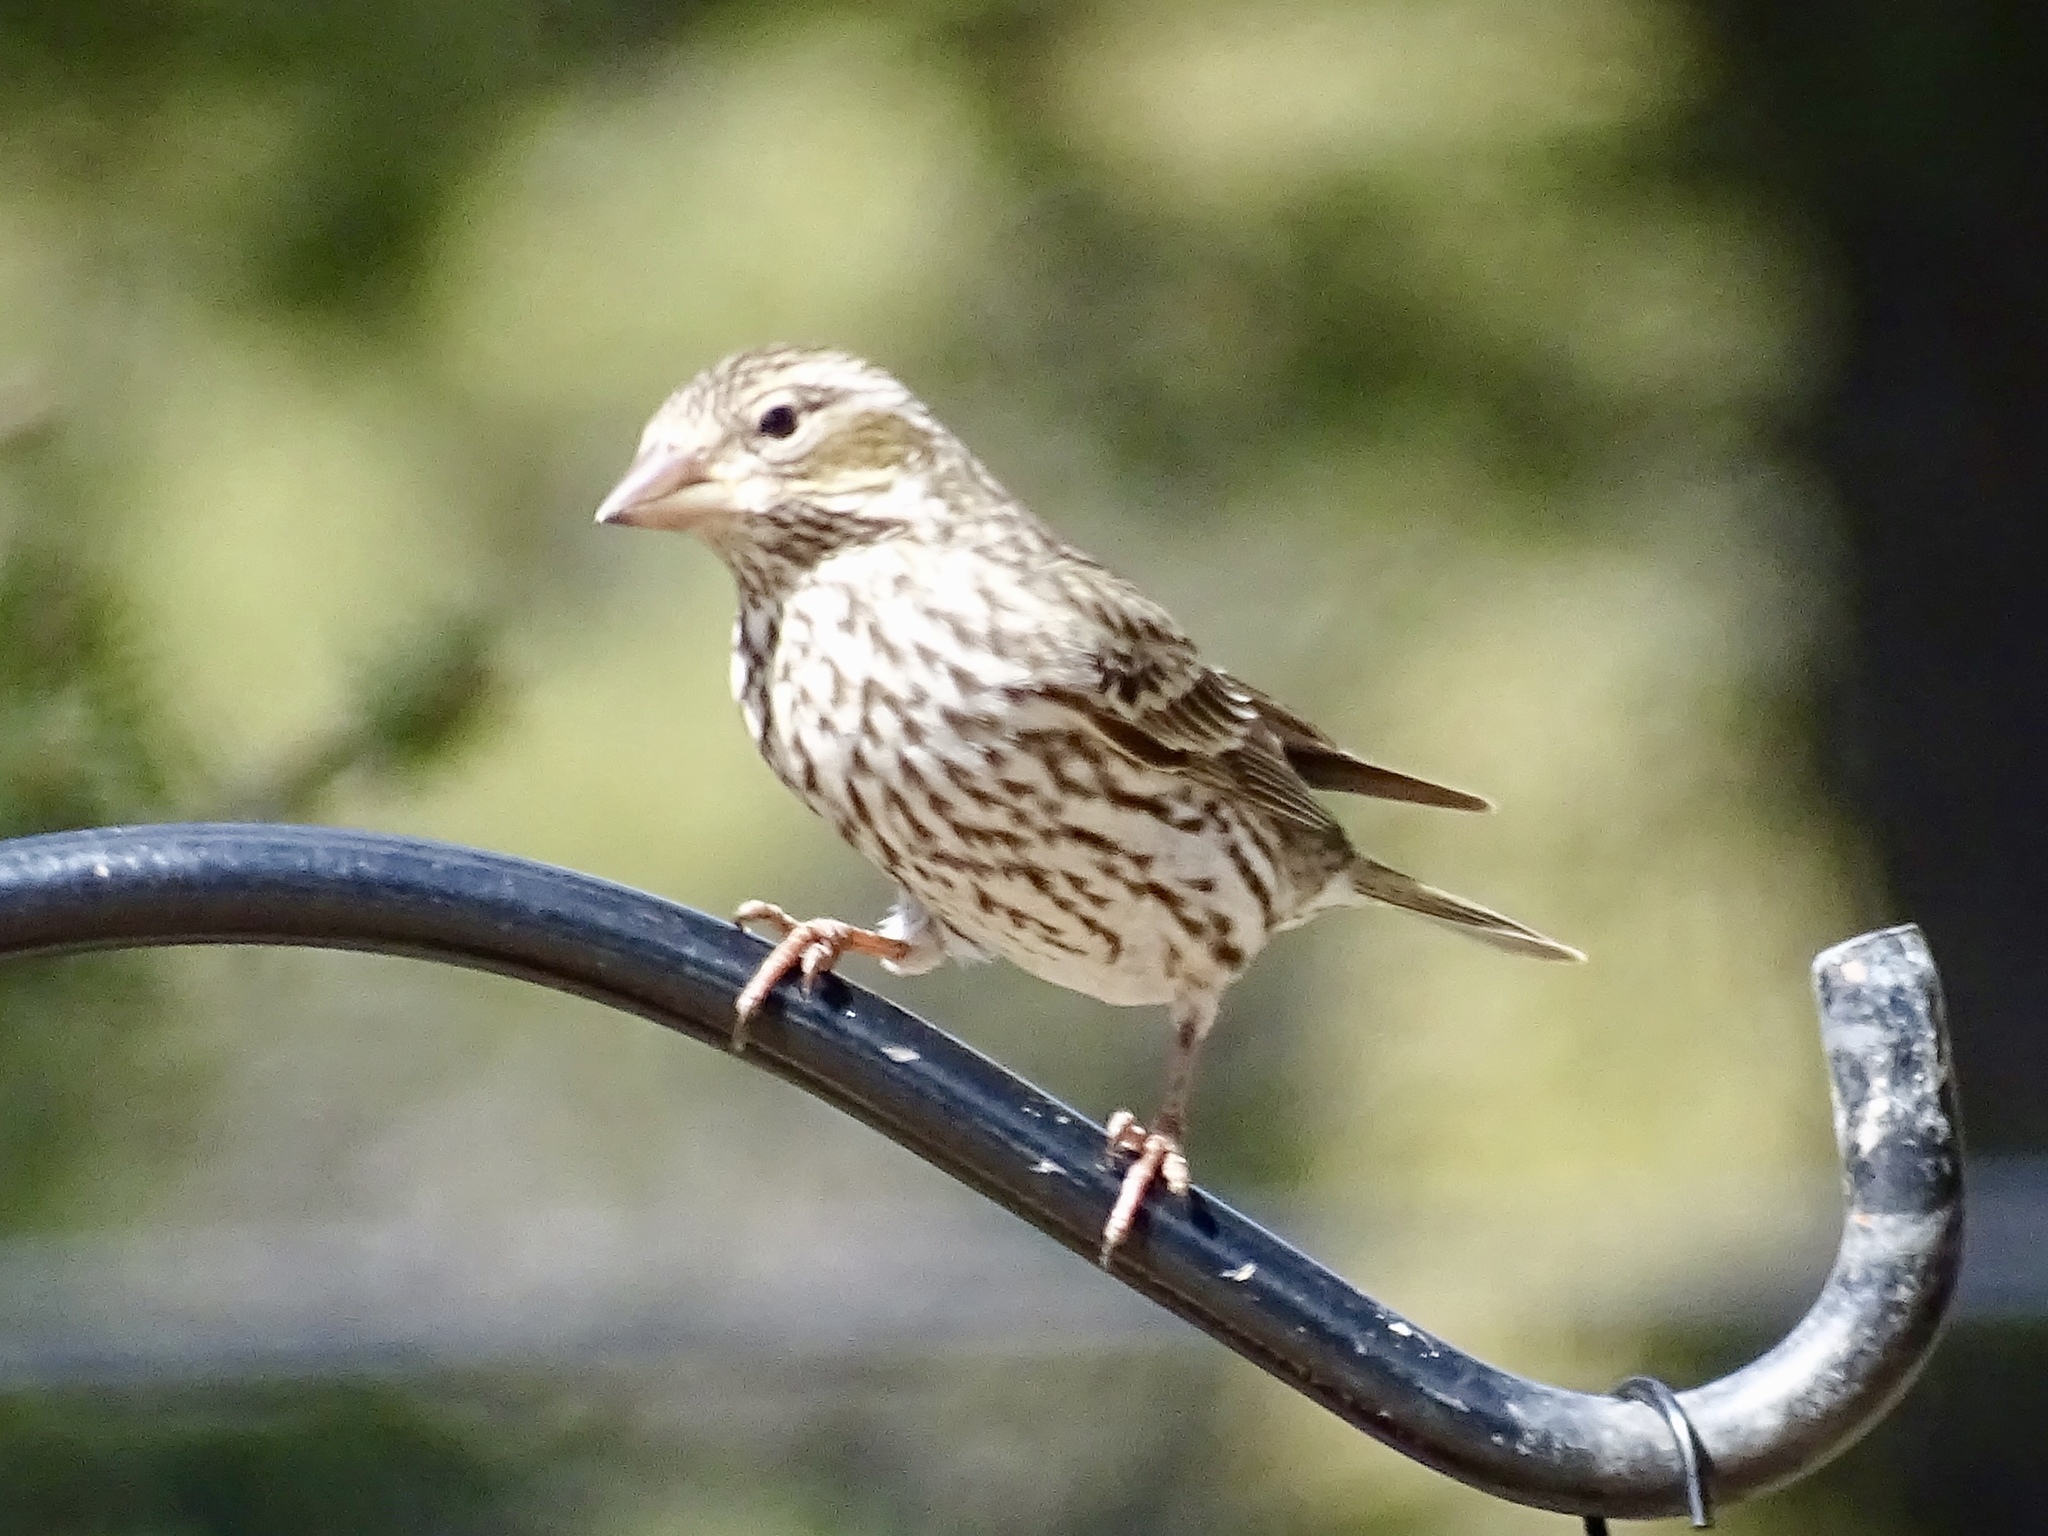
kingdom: Animalia
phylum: Chordata
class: Aves
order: Passeriformes
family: Fringillidae
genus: Haemorhous
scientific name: Haemorhous cassinii
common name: Cassin's finch
